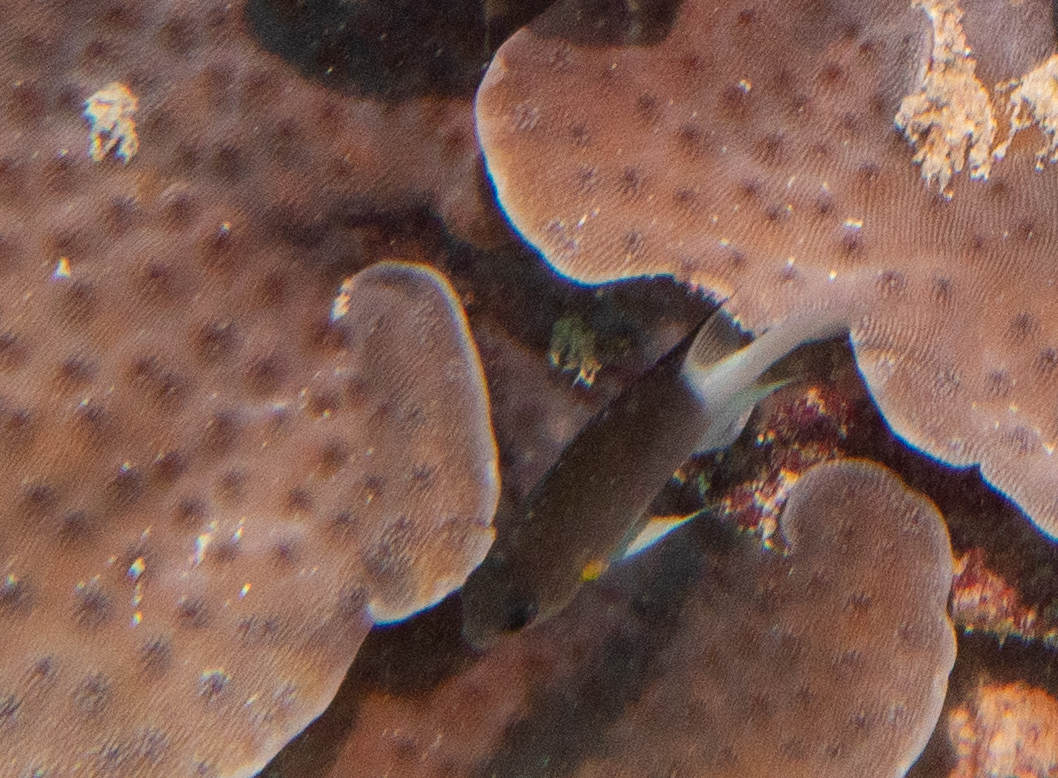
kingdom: Animalia
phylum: Chordata
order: Perciformes
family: Pomacentridae
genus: Pycnochromis
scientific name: Pycnochromis flavipectoralis
